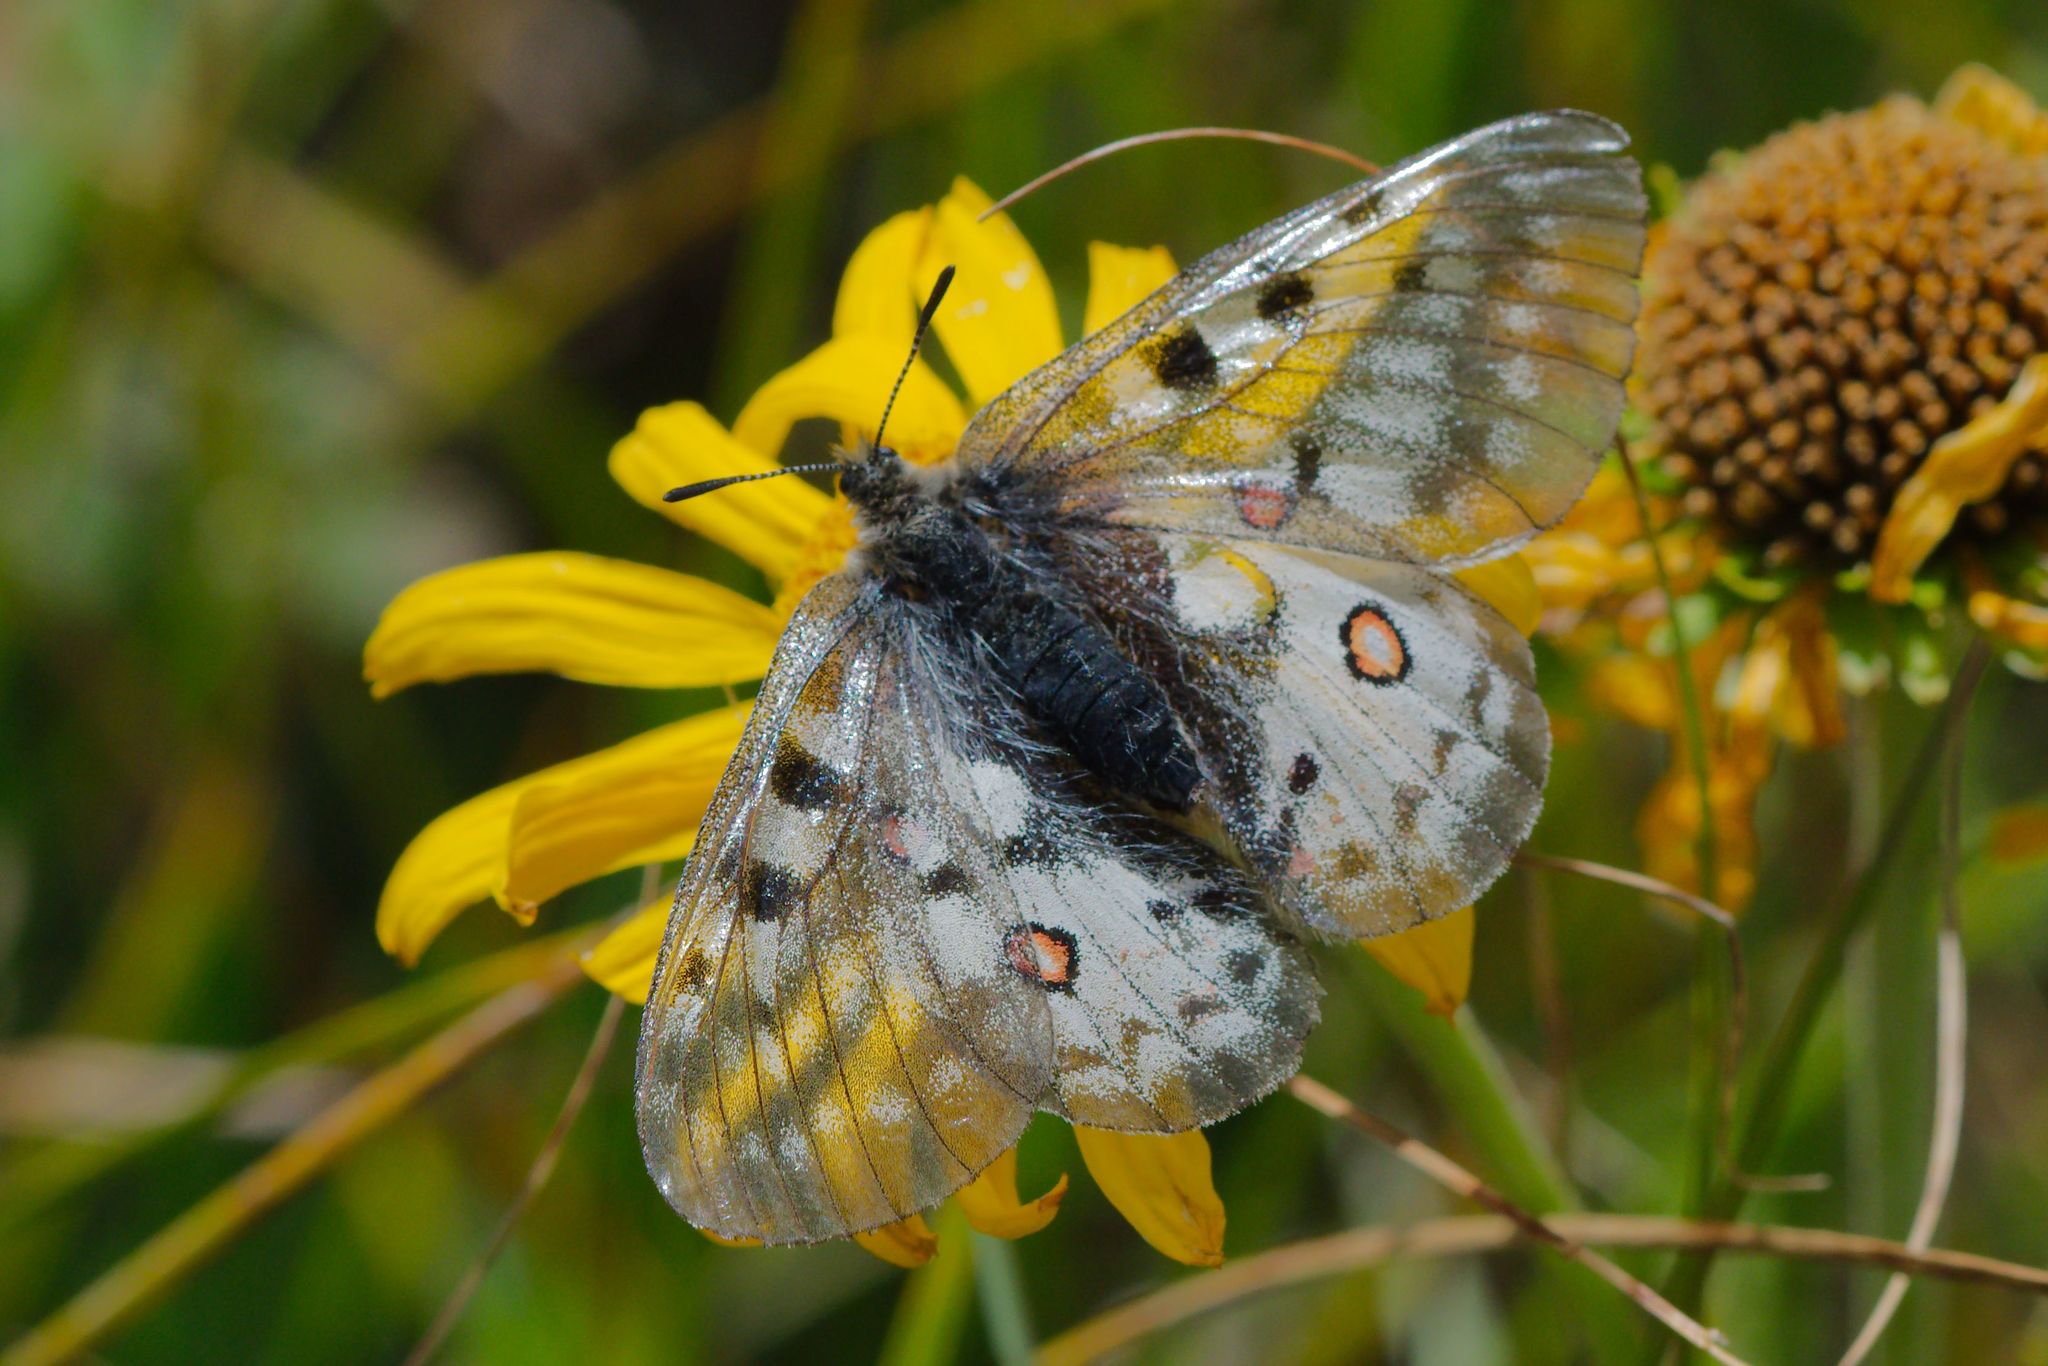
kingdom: Animalia
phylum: Arthropoda
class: Insecta
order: Lepidoptera
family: Papilionidae
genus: Parnassius
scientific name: Parnassius smintheus
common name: Mountain parnassian
